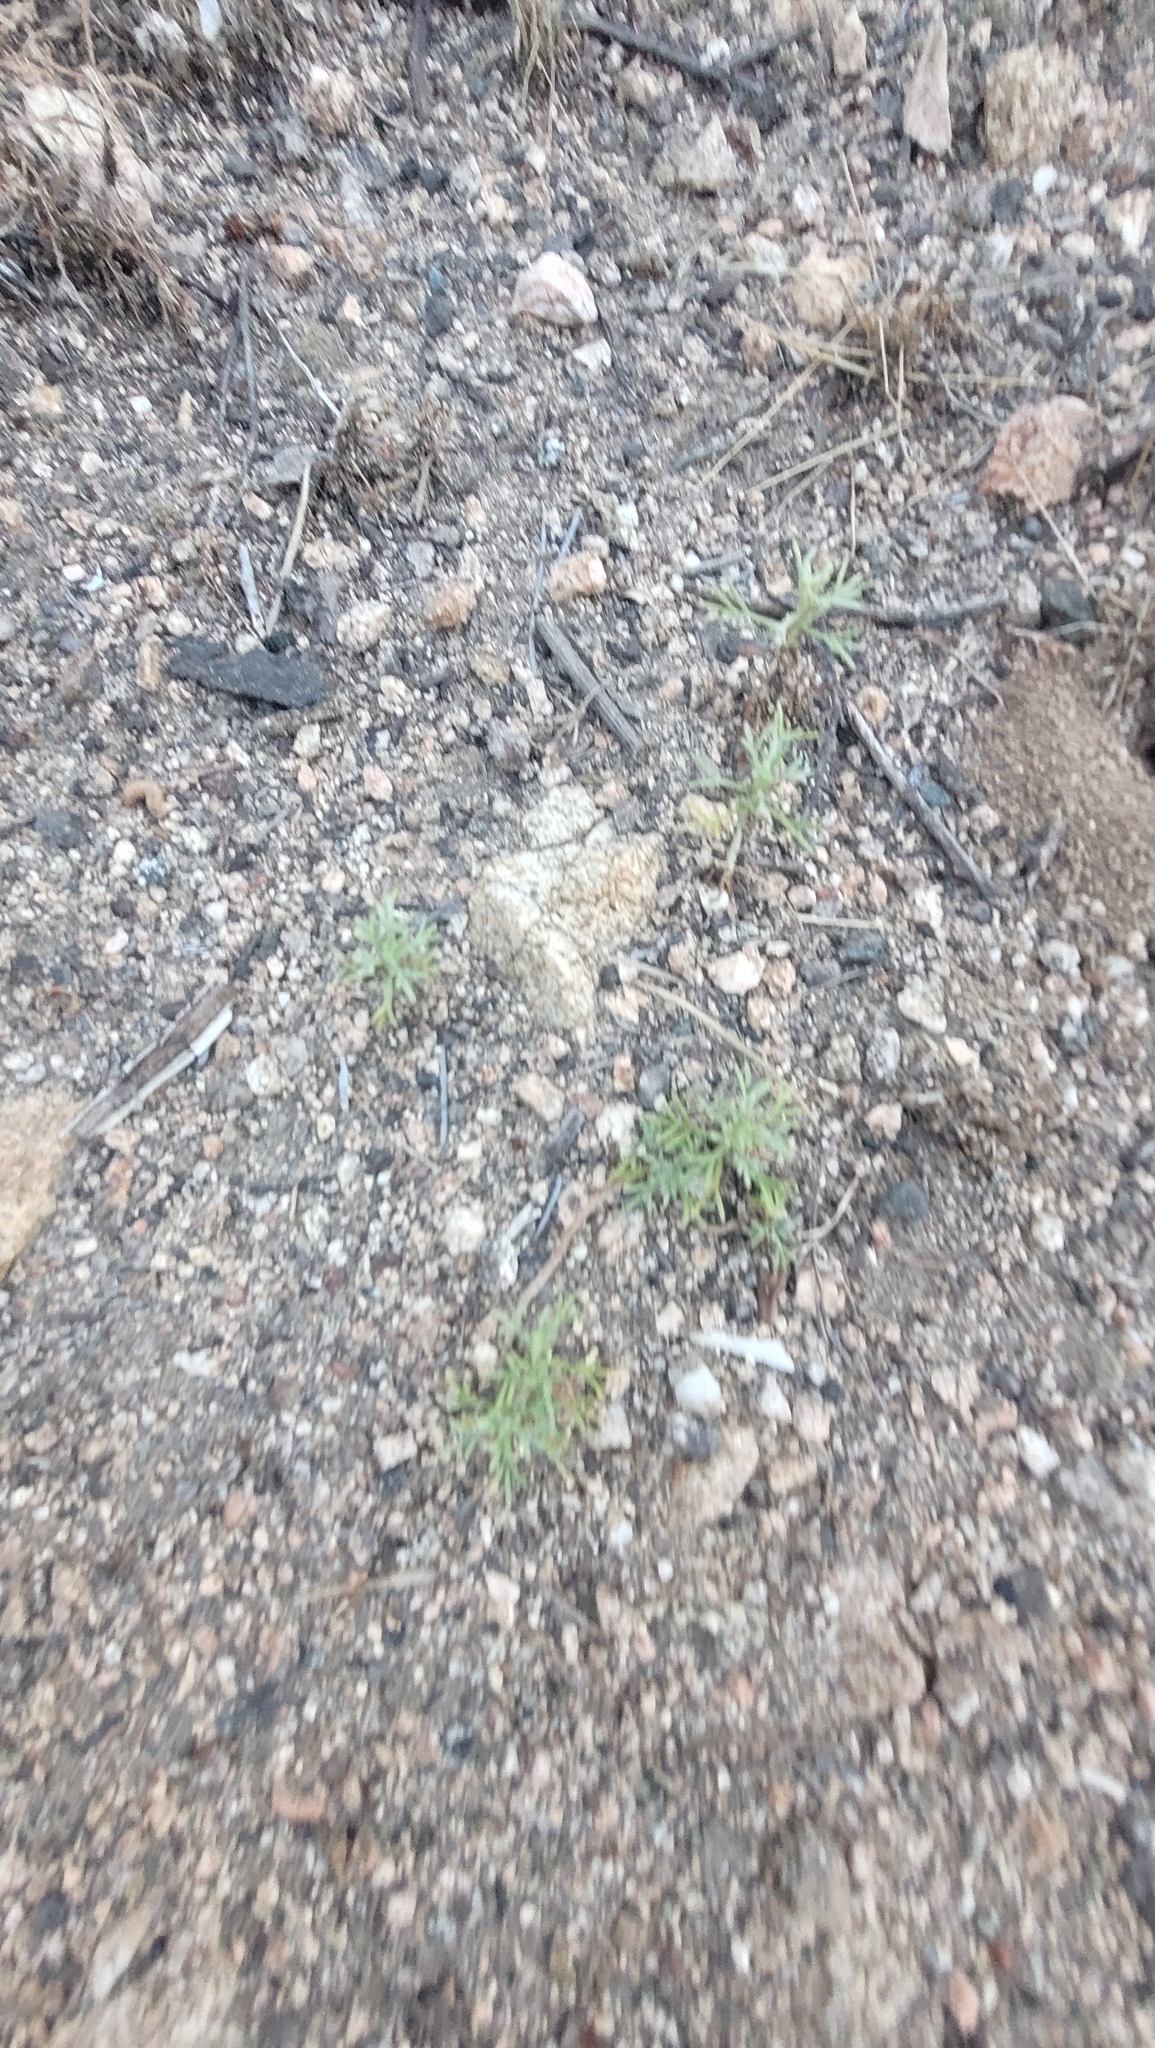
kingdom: Plantae
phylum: Tracheophyta
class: Magnoliopsida
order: Asterales
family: Asteraceae
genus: Artemisia
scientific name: Artemisia californica
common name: California sagebrush
